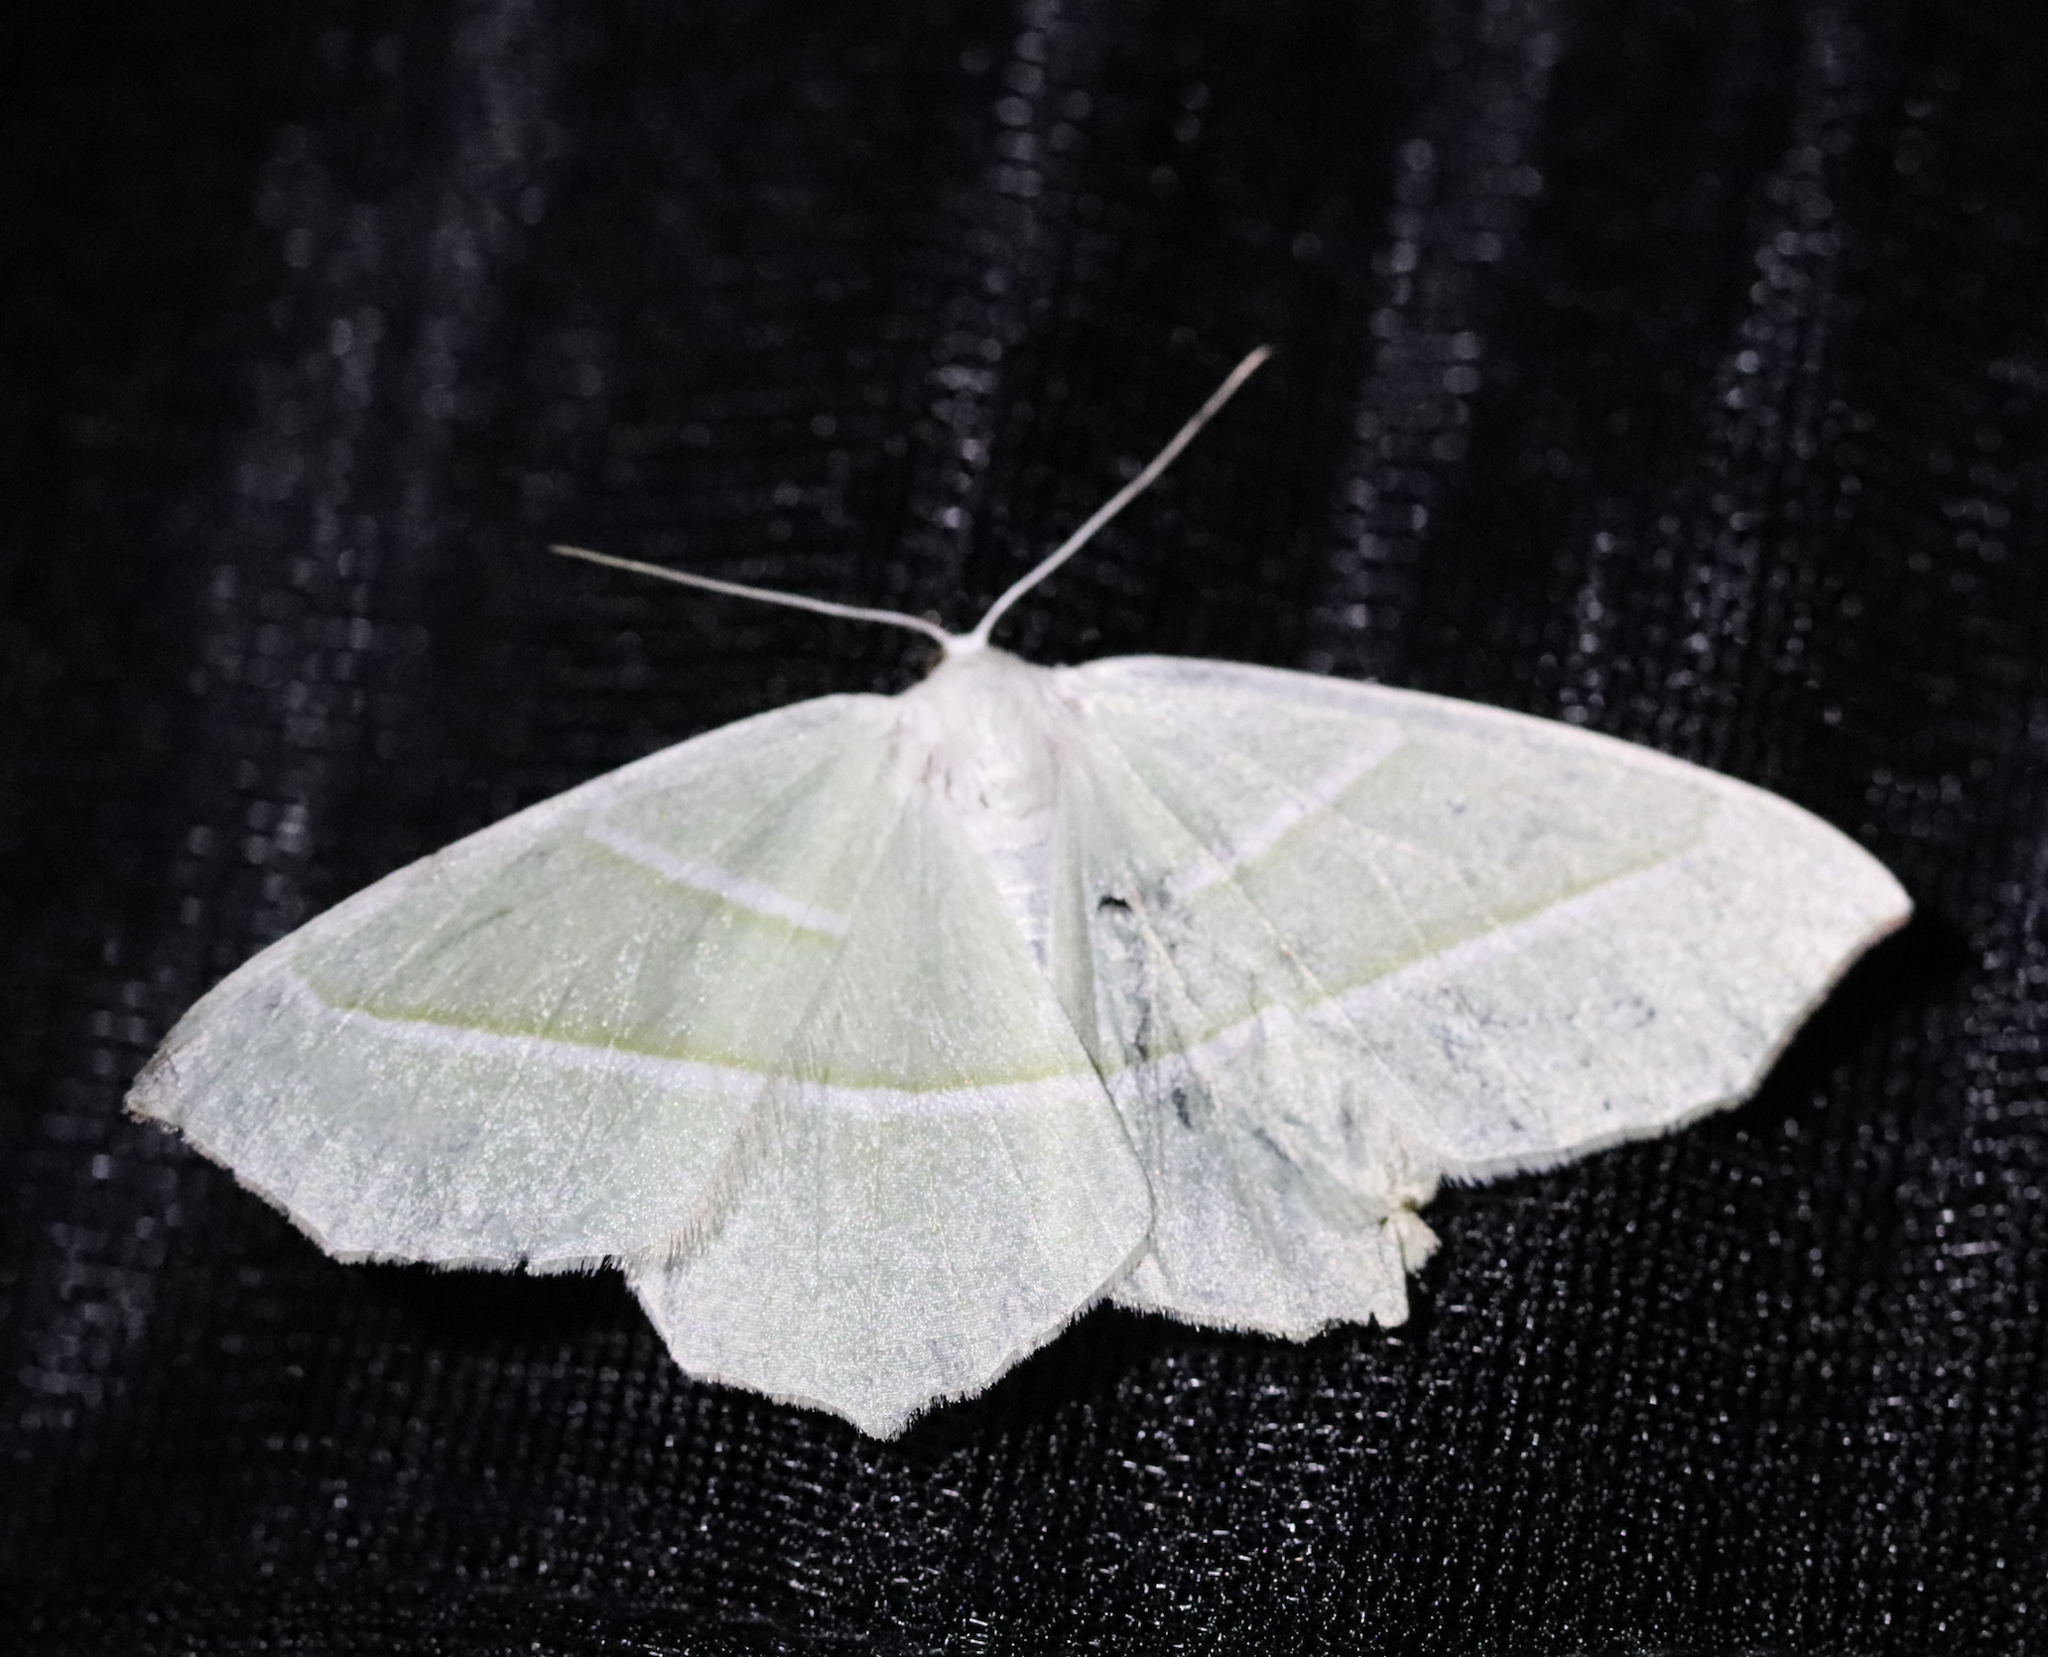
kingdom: Animalia
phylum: Arthropoda
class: Insecta
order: Lepidoptera
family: Geometridae
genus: Campaea
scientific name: Campaea margaritaria
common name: Light emerald
